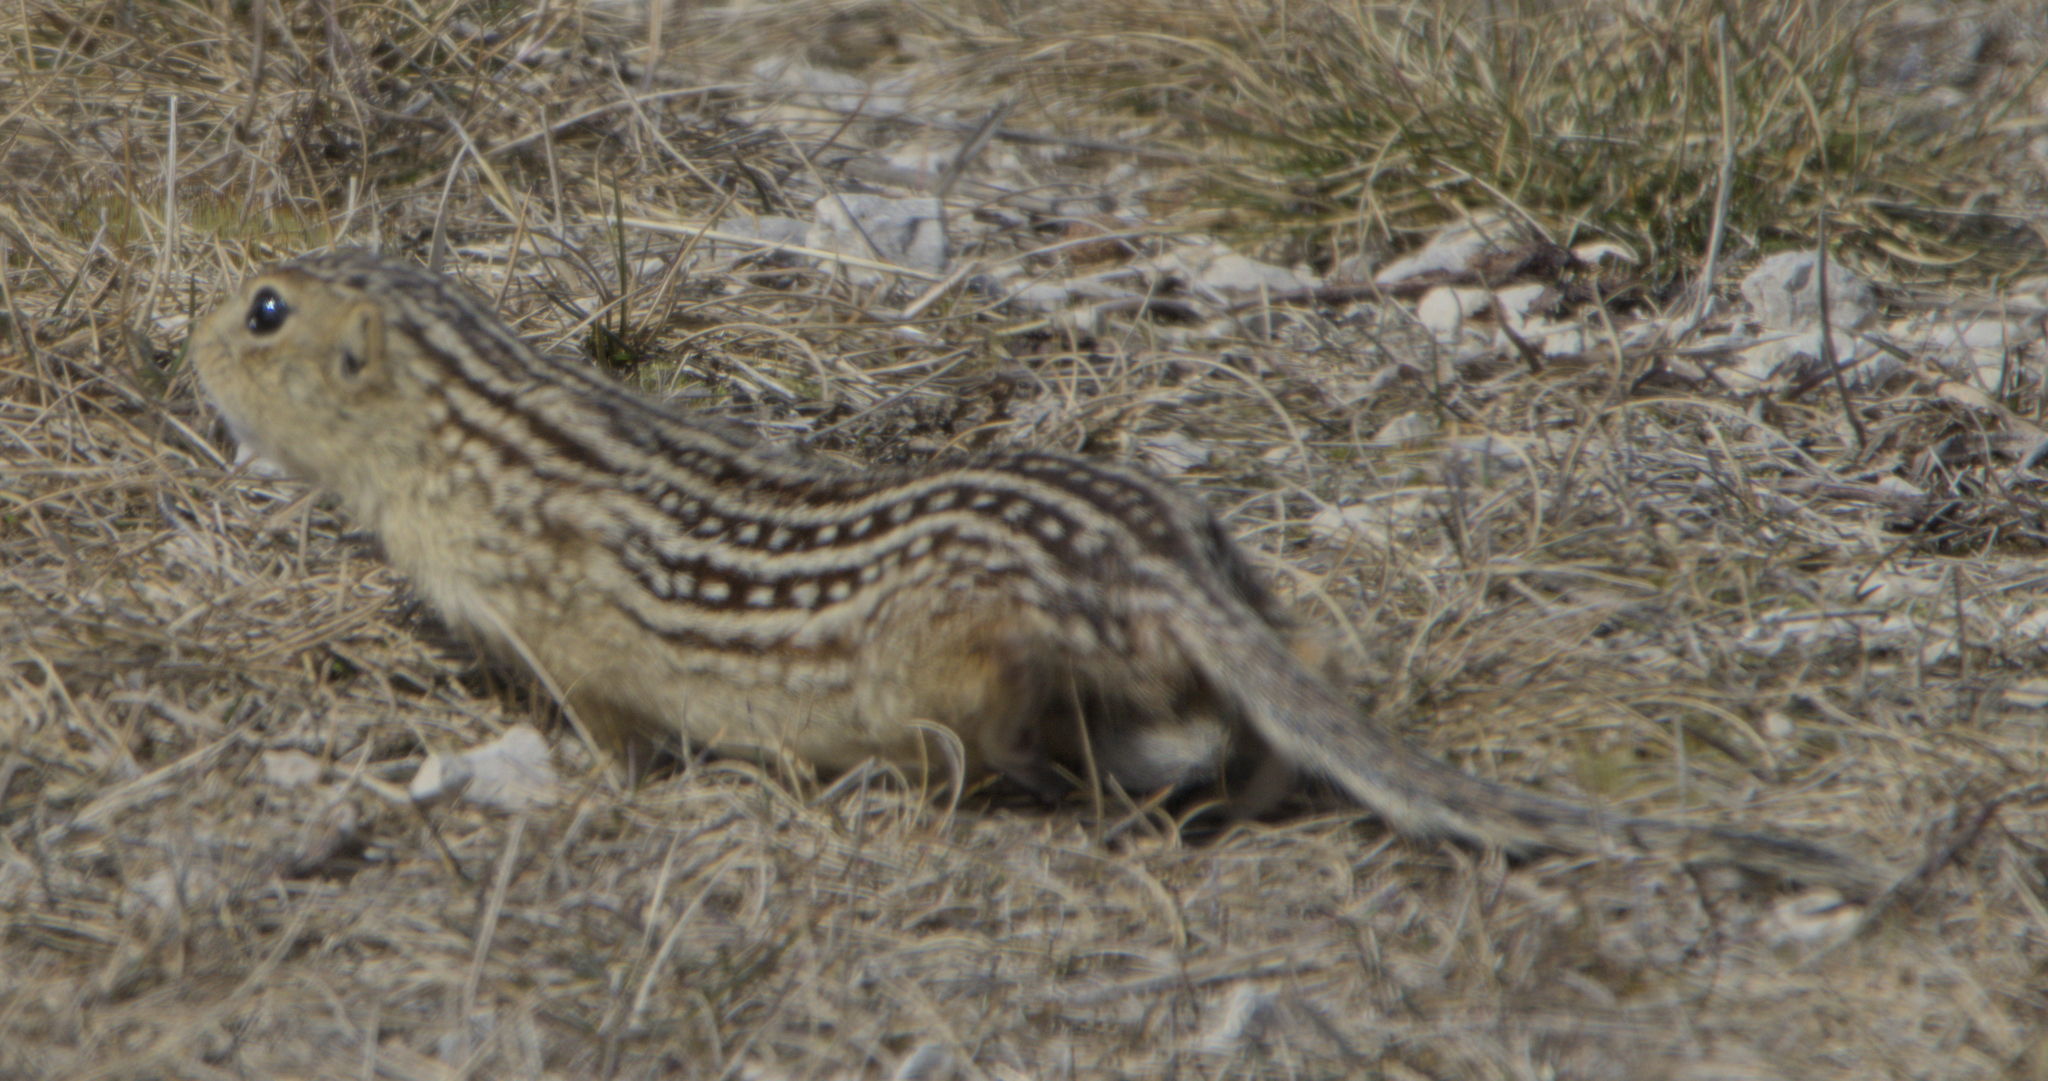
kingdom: Animalia
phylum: Chordata
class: Mammalia
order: Rodentia
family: Sciuridae
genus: Ictidomys
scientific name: Ictidomys tridecemlineatus
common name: Thirteen-lined ground squirrel
